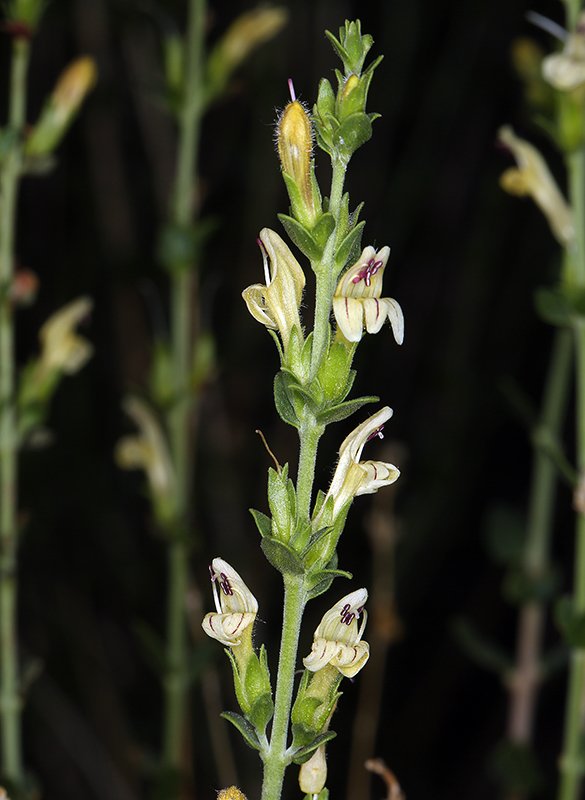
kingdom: Plantae
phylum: Tracheophyta
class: Magnoliopsida
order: Lamiales
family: Plantaginaceae
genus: Keckiella
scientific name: Keckiella rothrockii
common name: Rothrock's keckiella
